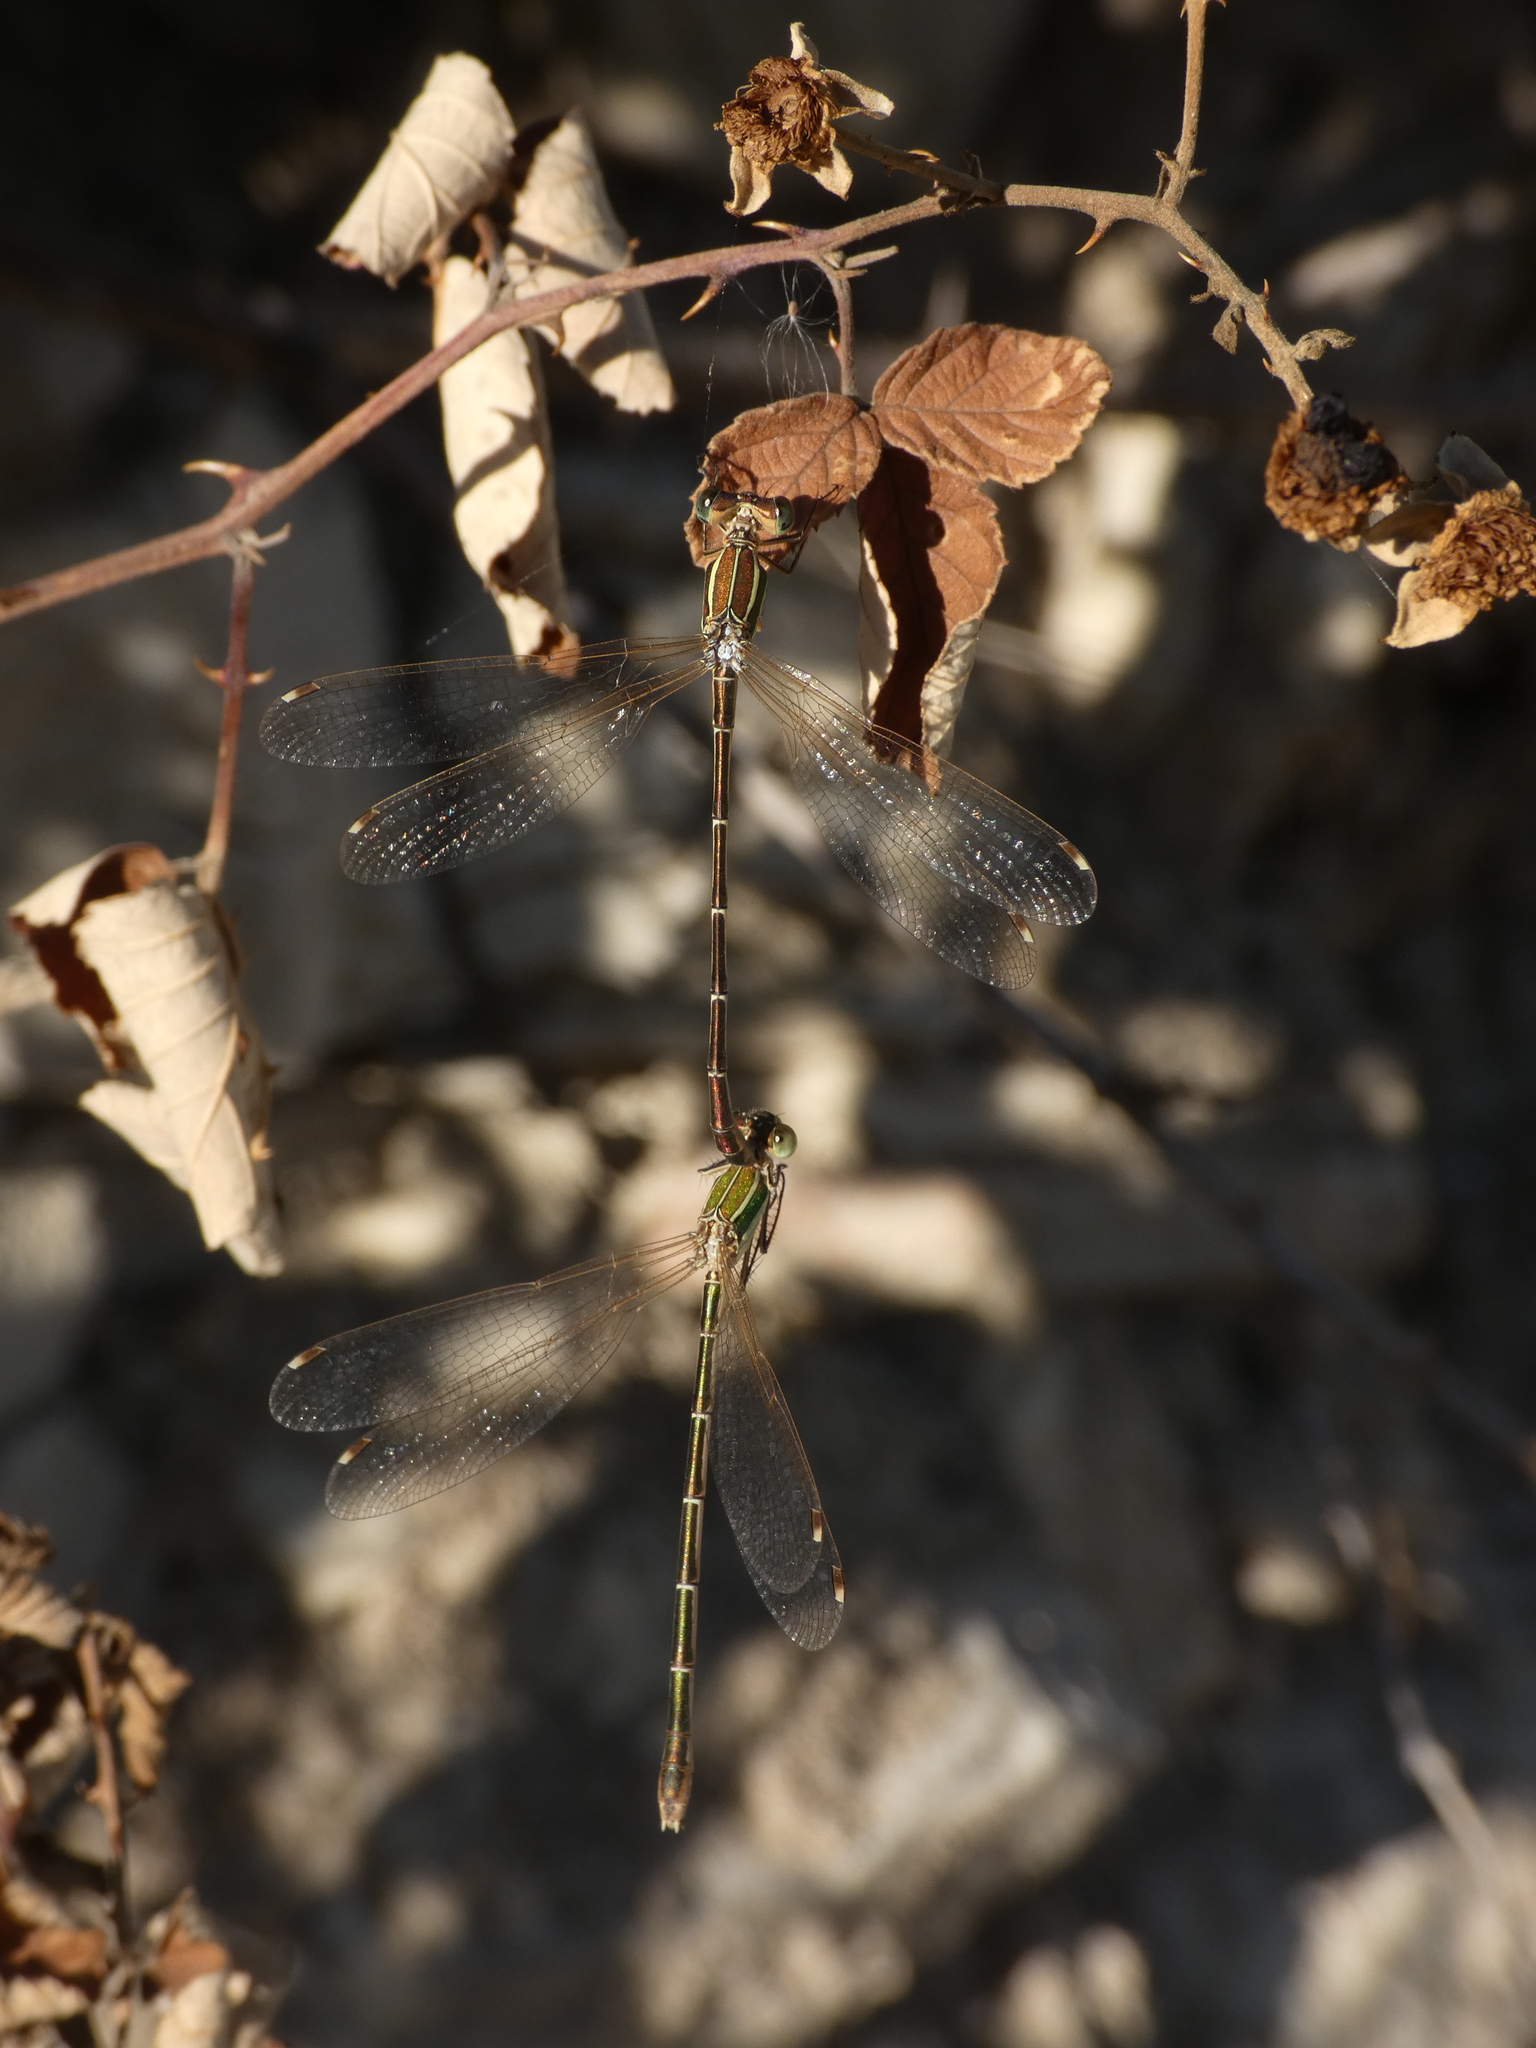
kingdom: Animalia
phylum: Arthropoda
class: Insecta
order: Odonata
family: Lestidae
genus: Lestes
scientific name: Lestes barbarus
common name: Migrant spreadwing
